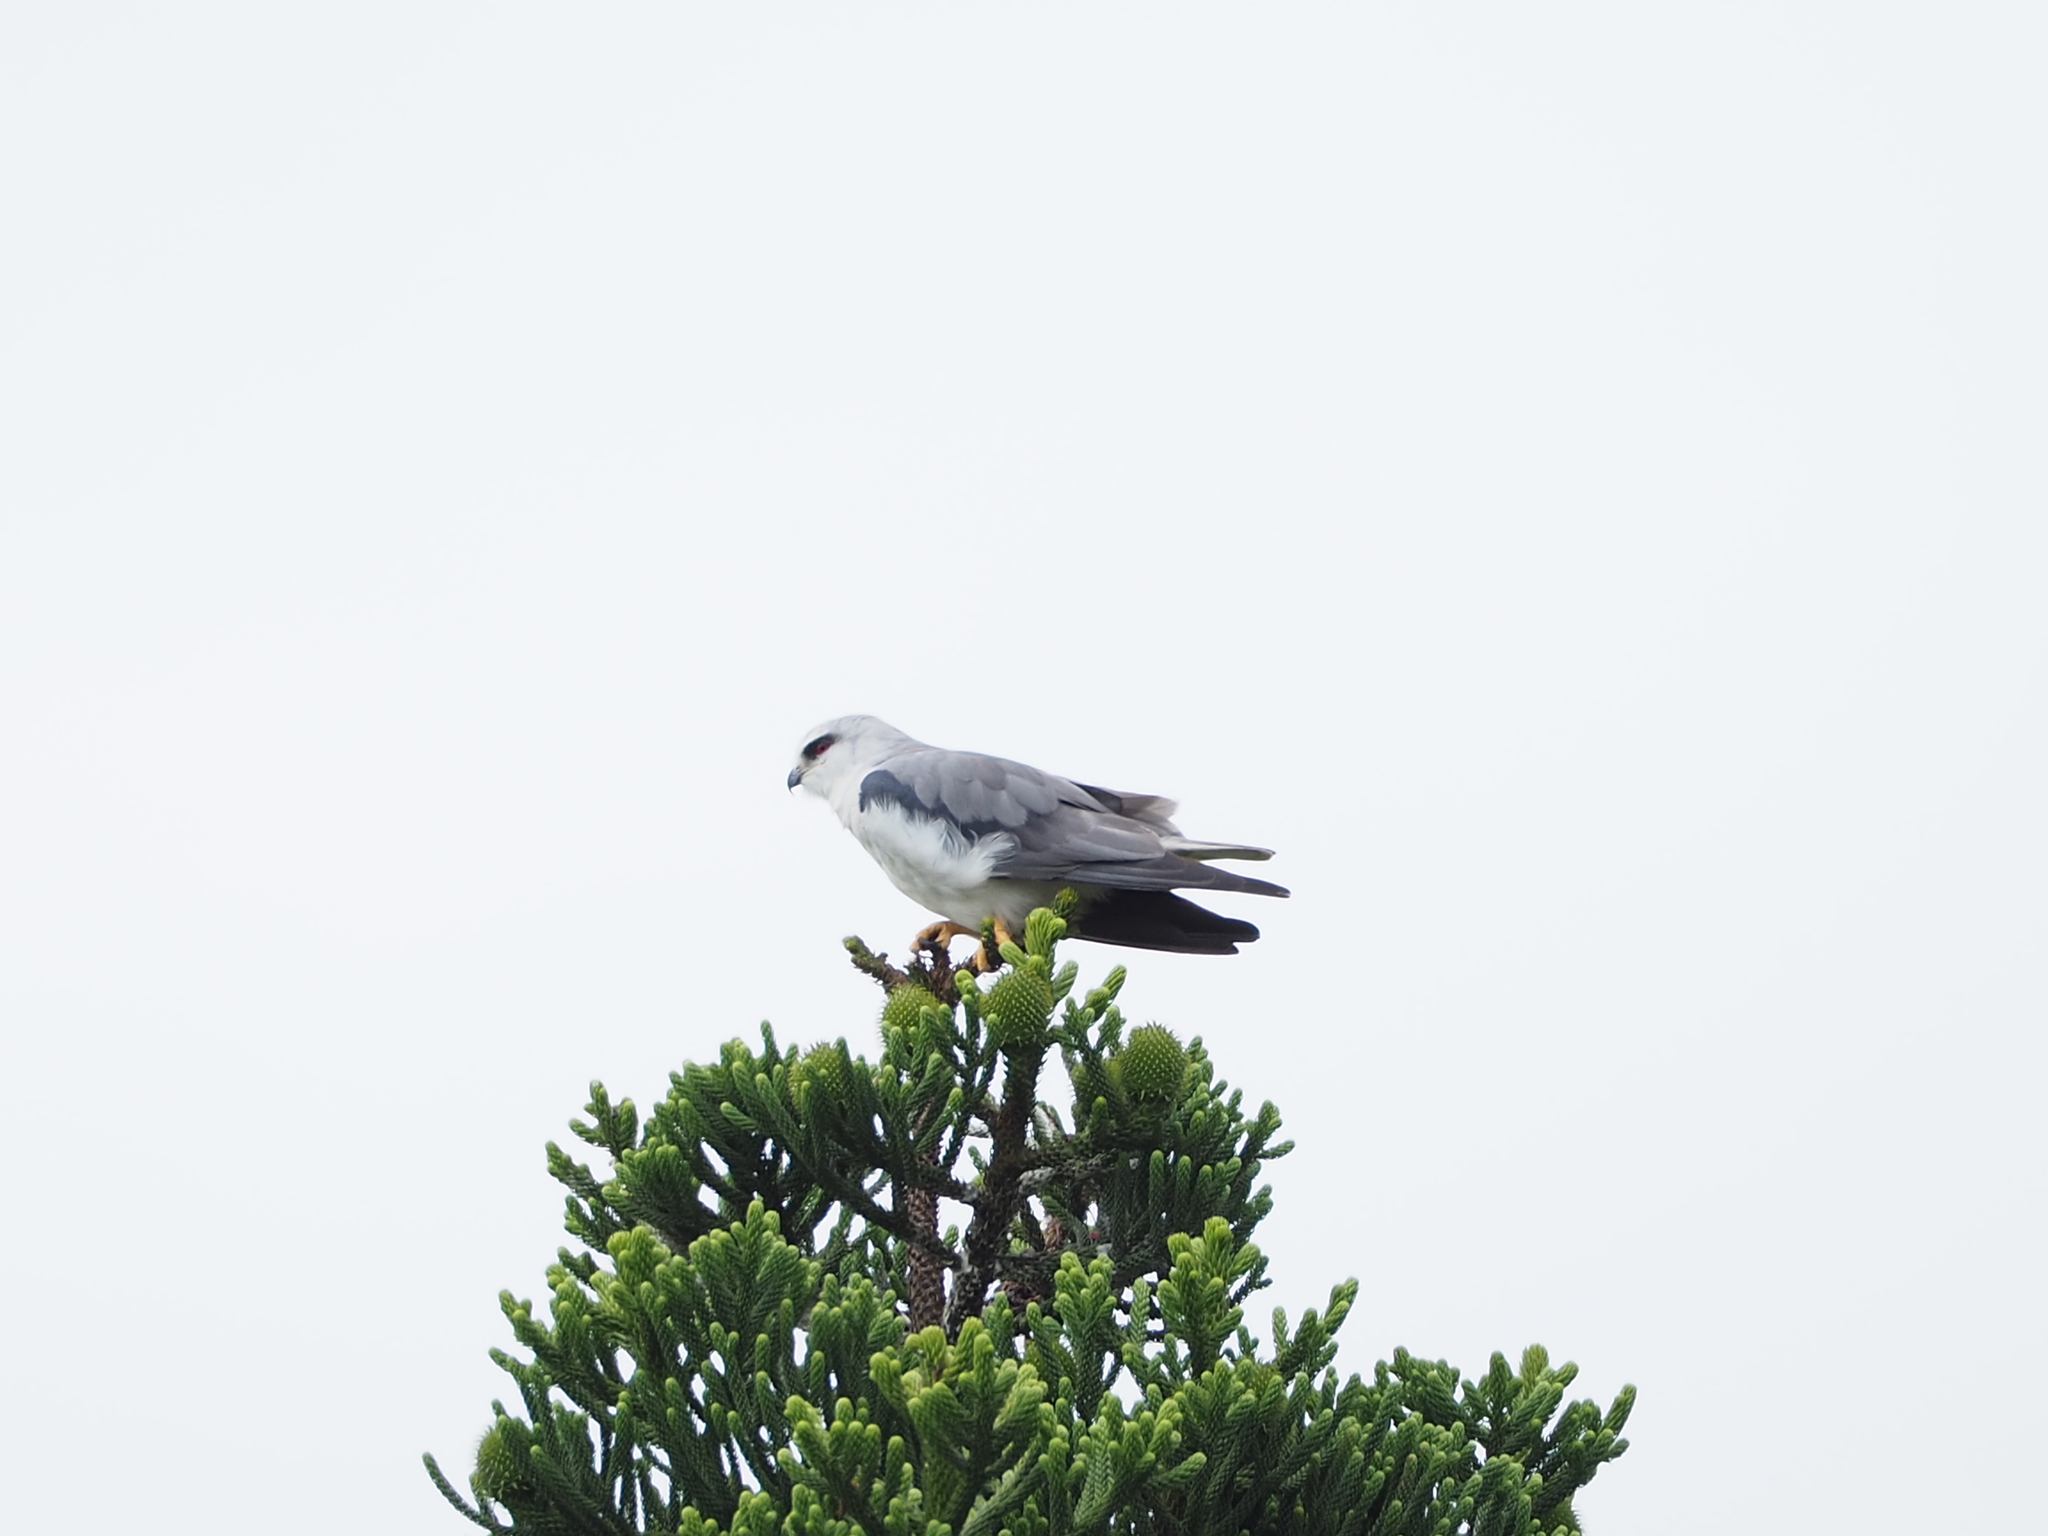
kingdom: Animalia
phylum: Chordata
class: Aves
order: Accipitriformes
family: Accipitridae
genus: Elanus
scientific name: Elanus caeruleus
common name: Black-winged kite
